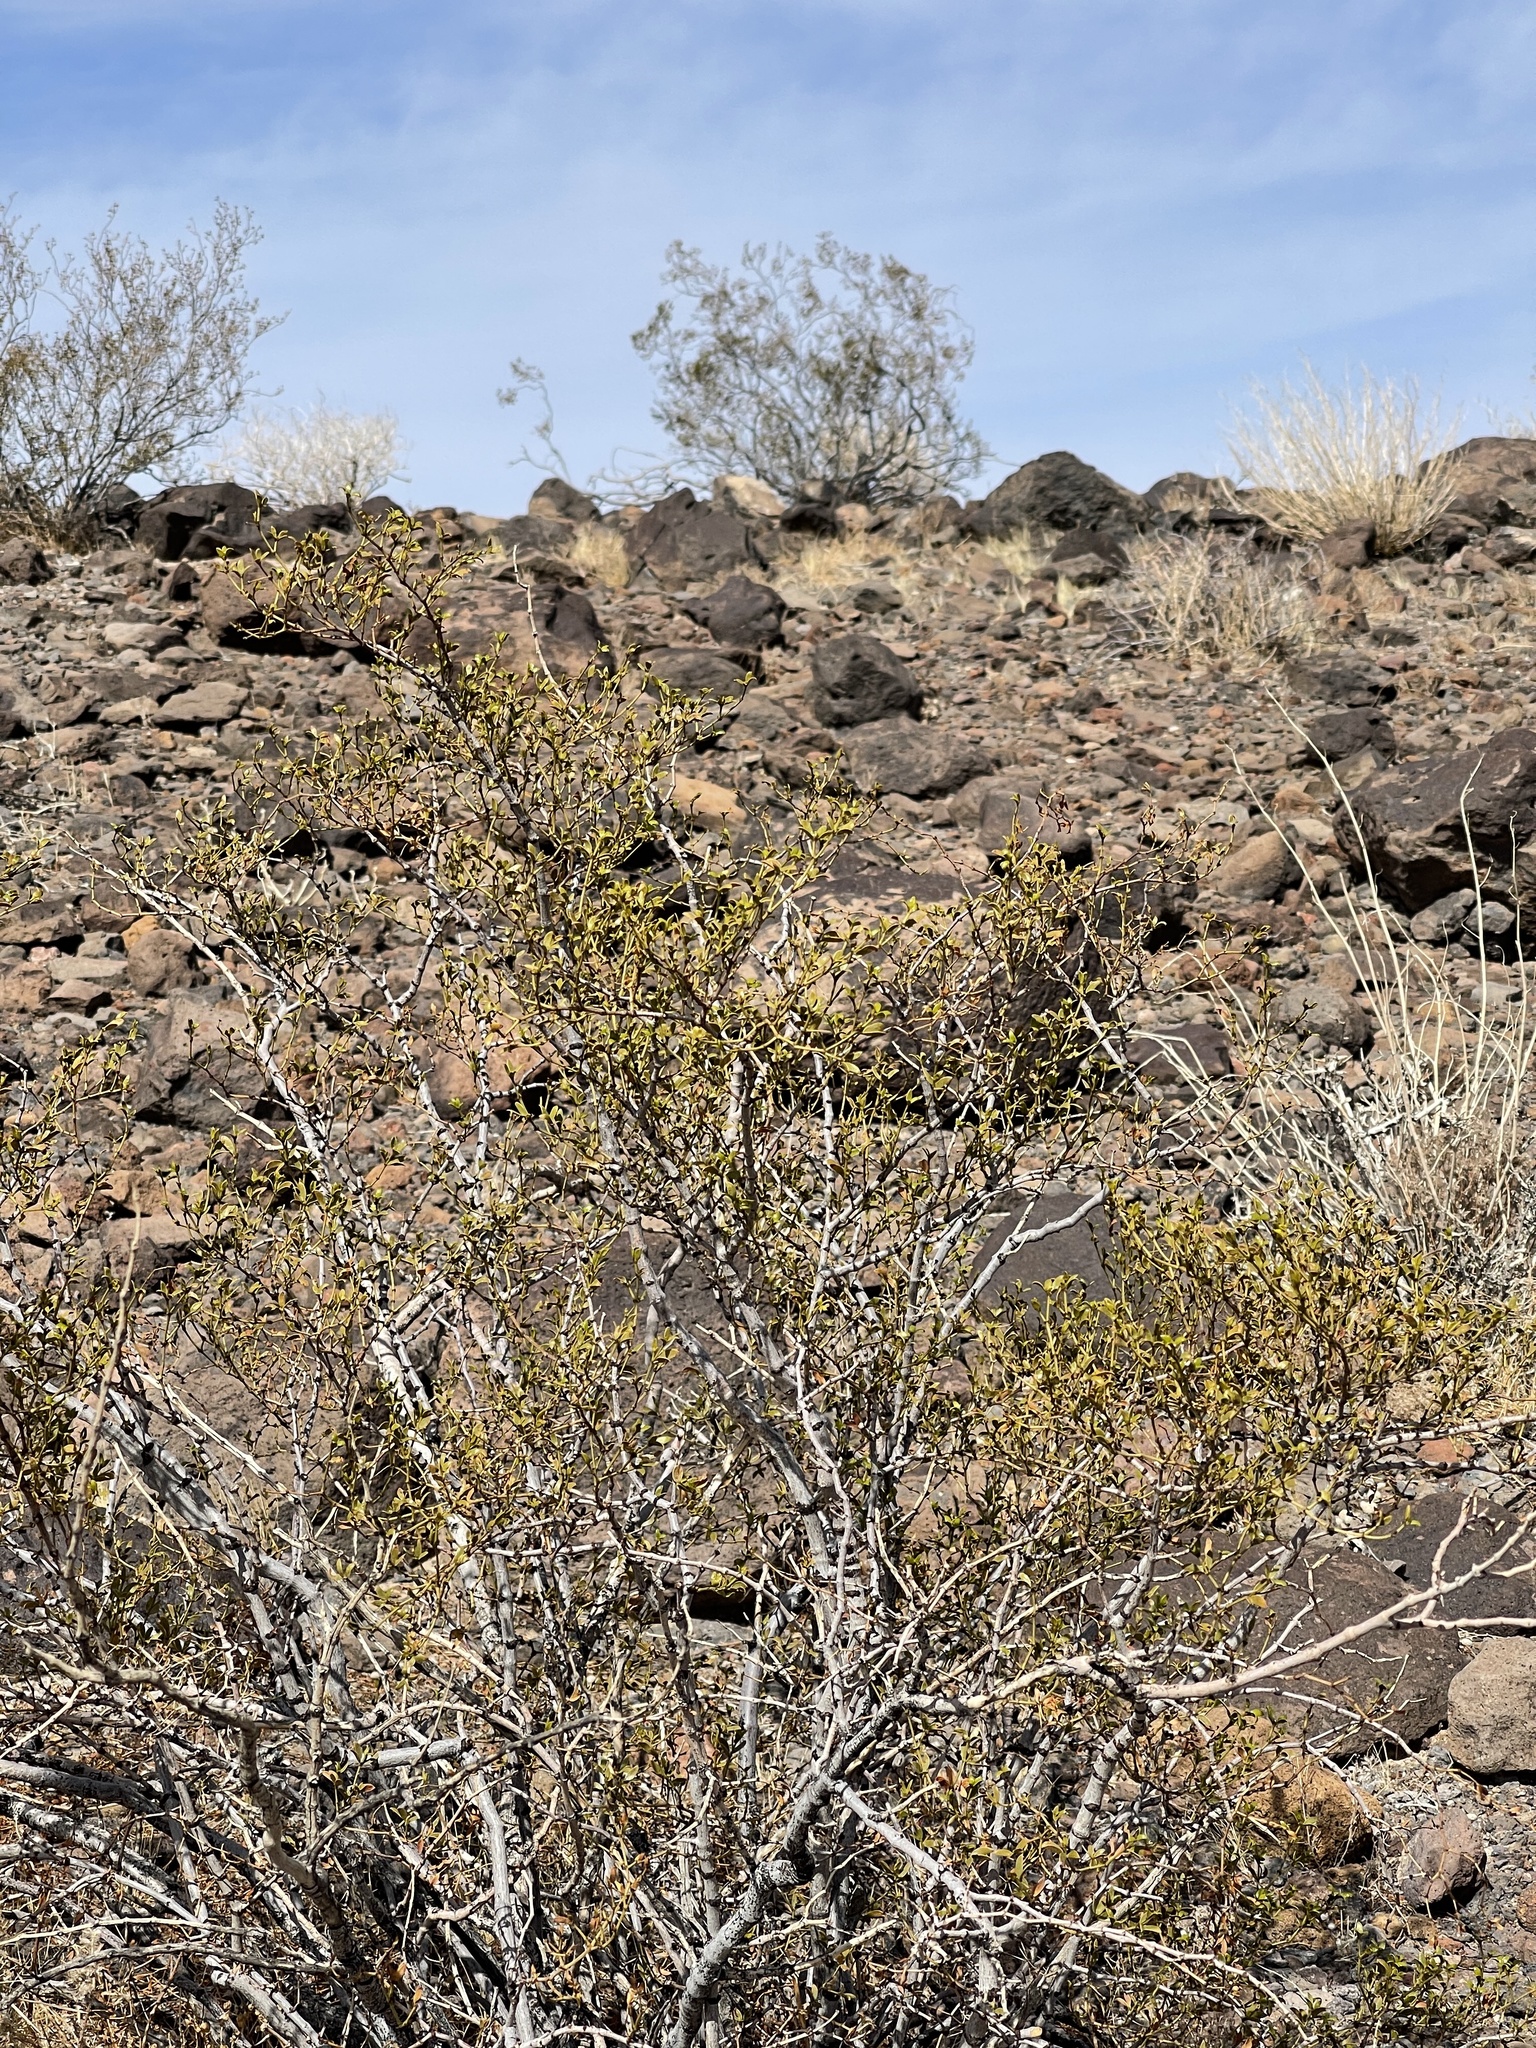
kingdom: Plantae
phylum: Tracheophyta
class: Magnoliopsida
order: Zygophyllales
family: Zygophyllaceae
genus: Larrea
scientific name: Larrea tridentata
